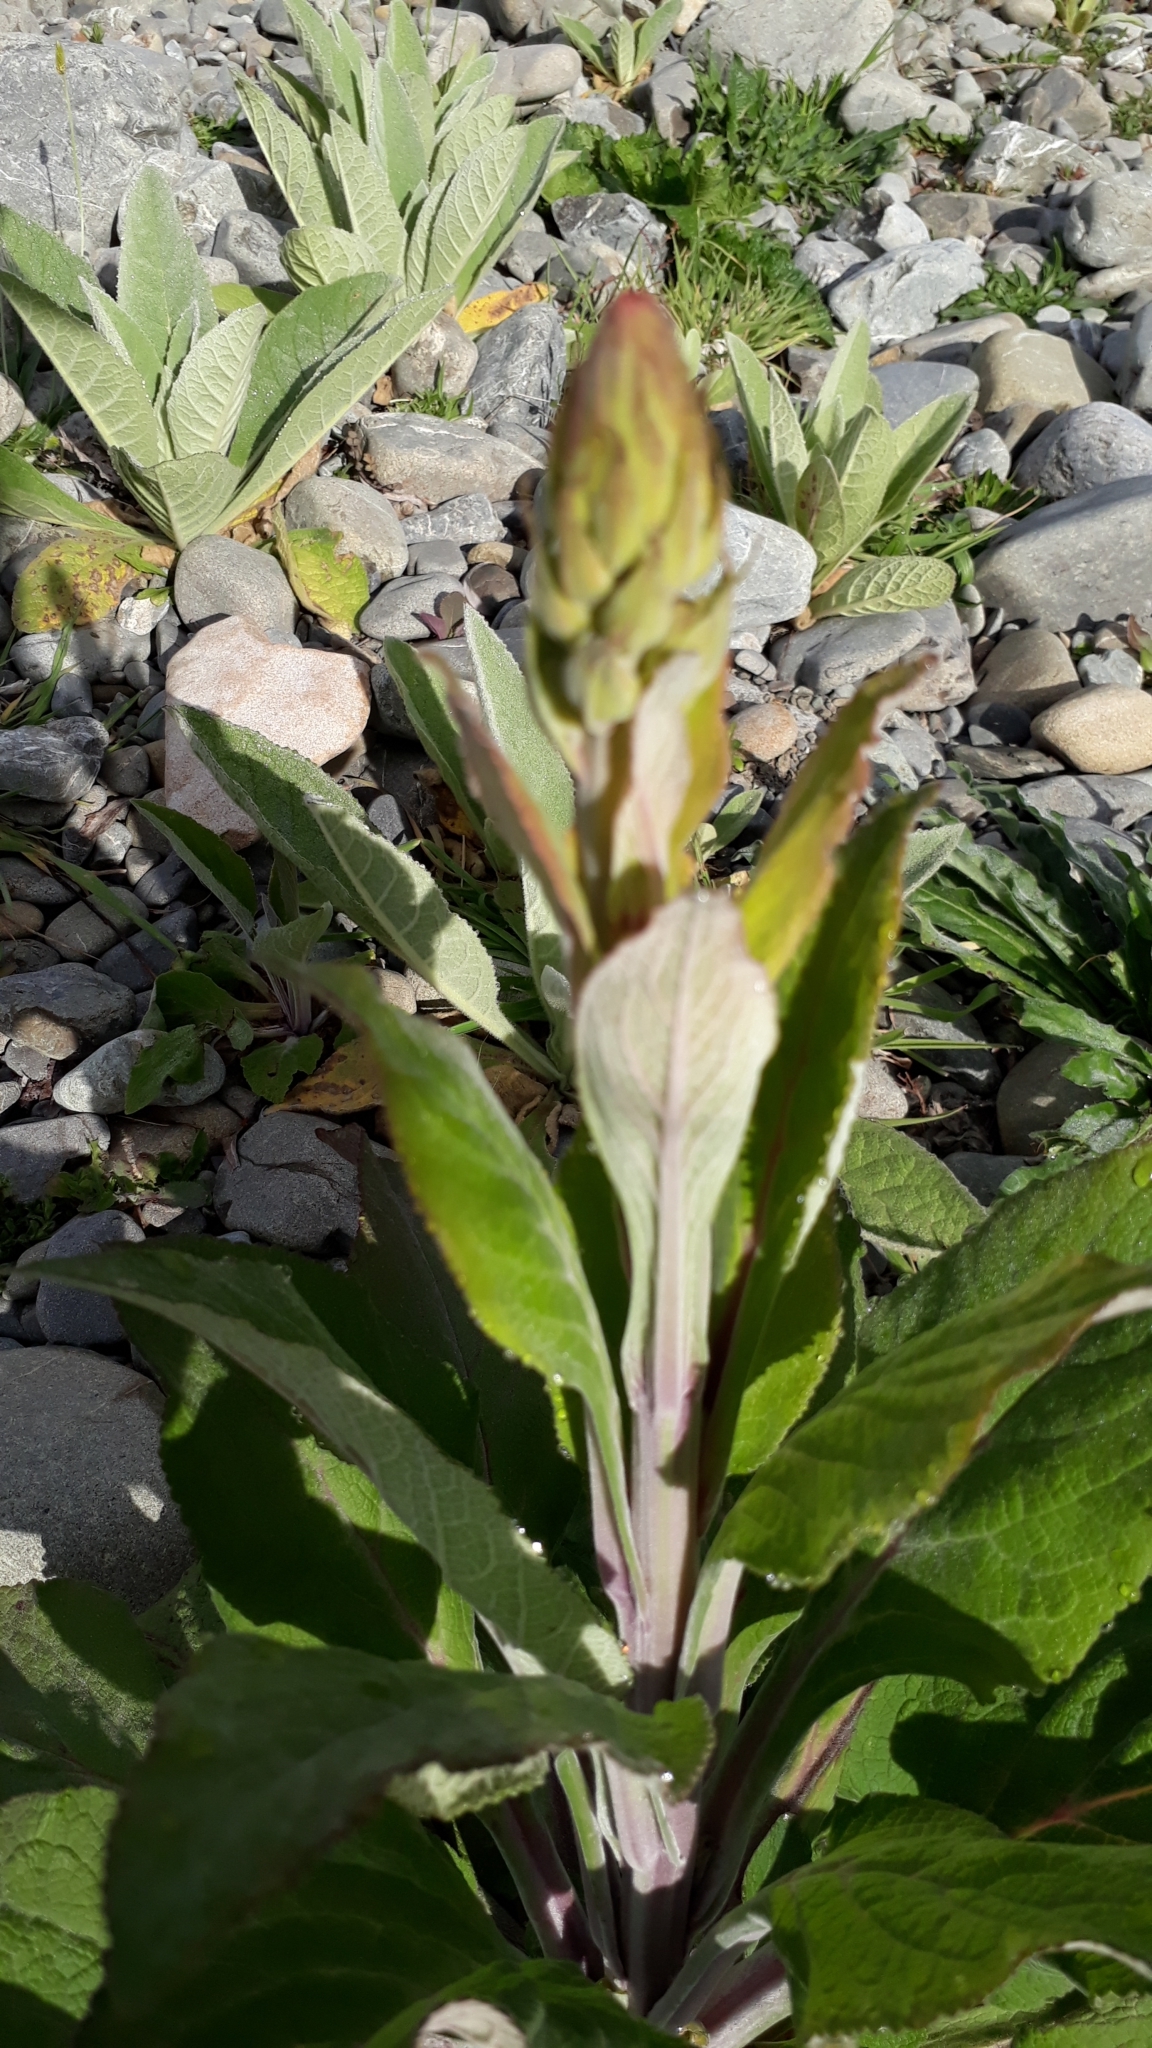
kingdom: Plantae
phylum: Tracheophyta
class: Magnoliopsida
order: Lamiales
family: Plantaginaceae
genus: Digitalis
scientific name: Digitalis purpurea
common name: Foxglove
